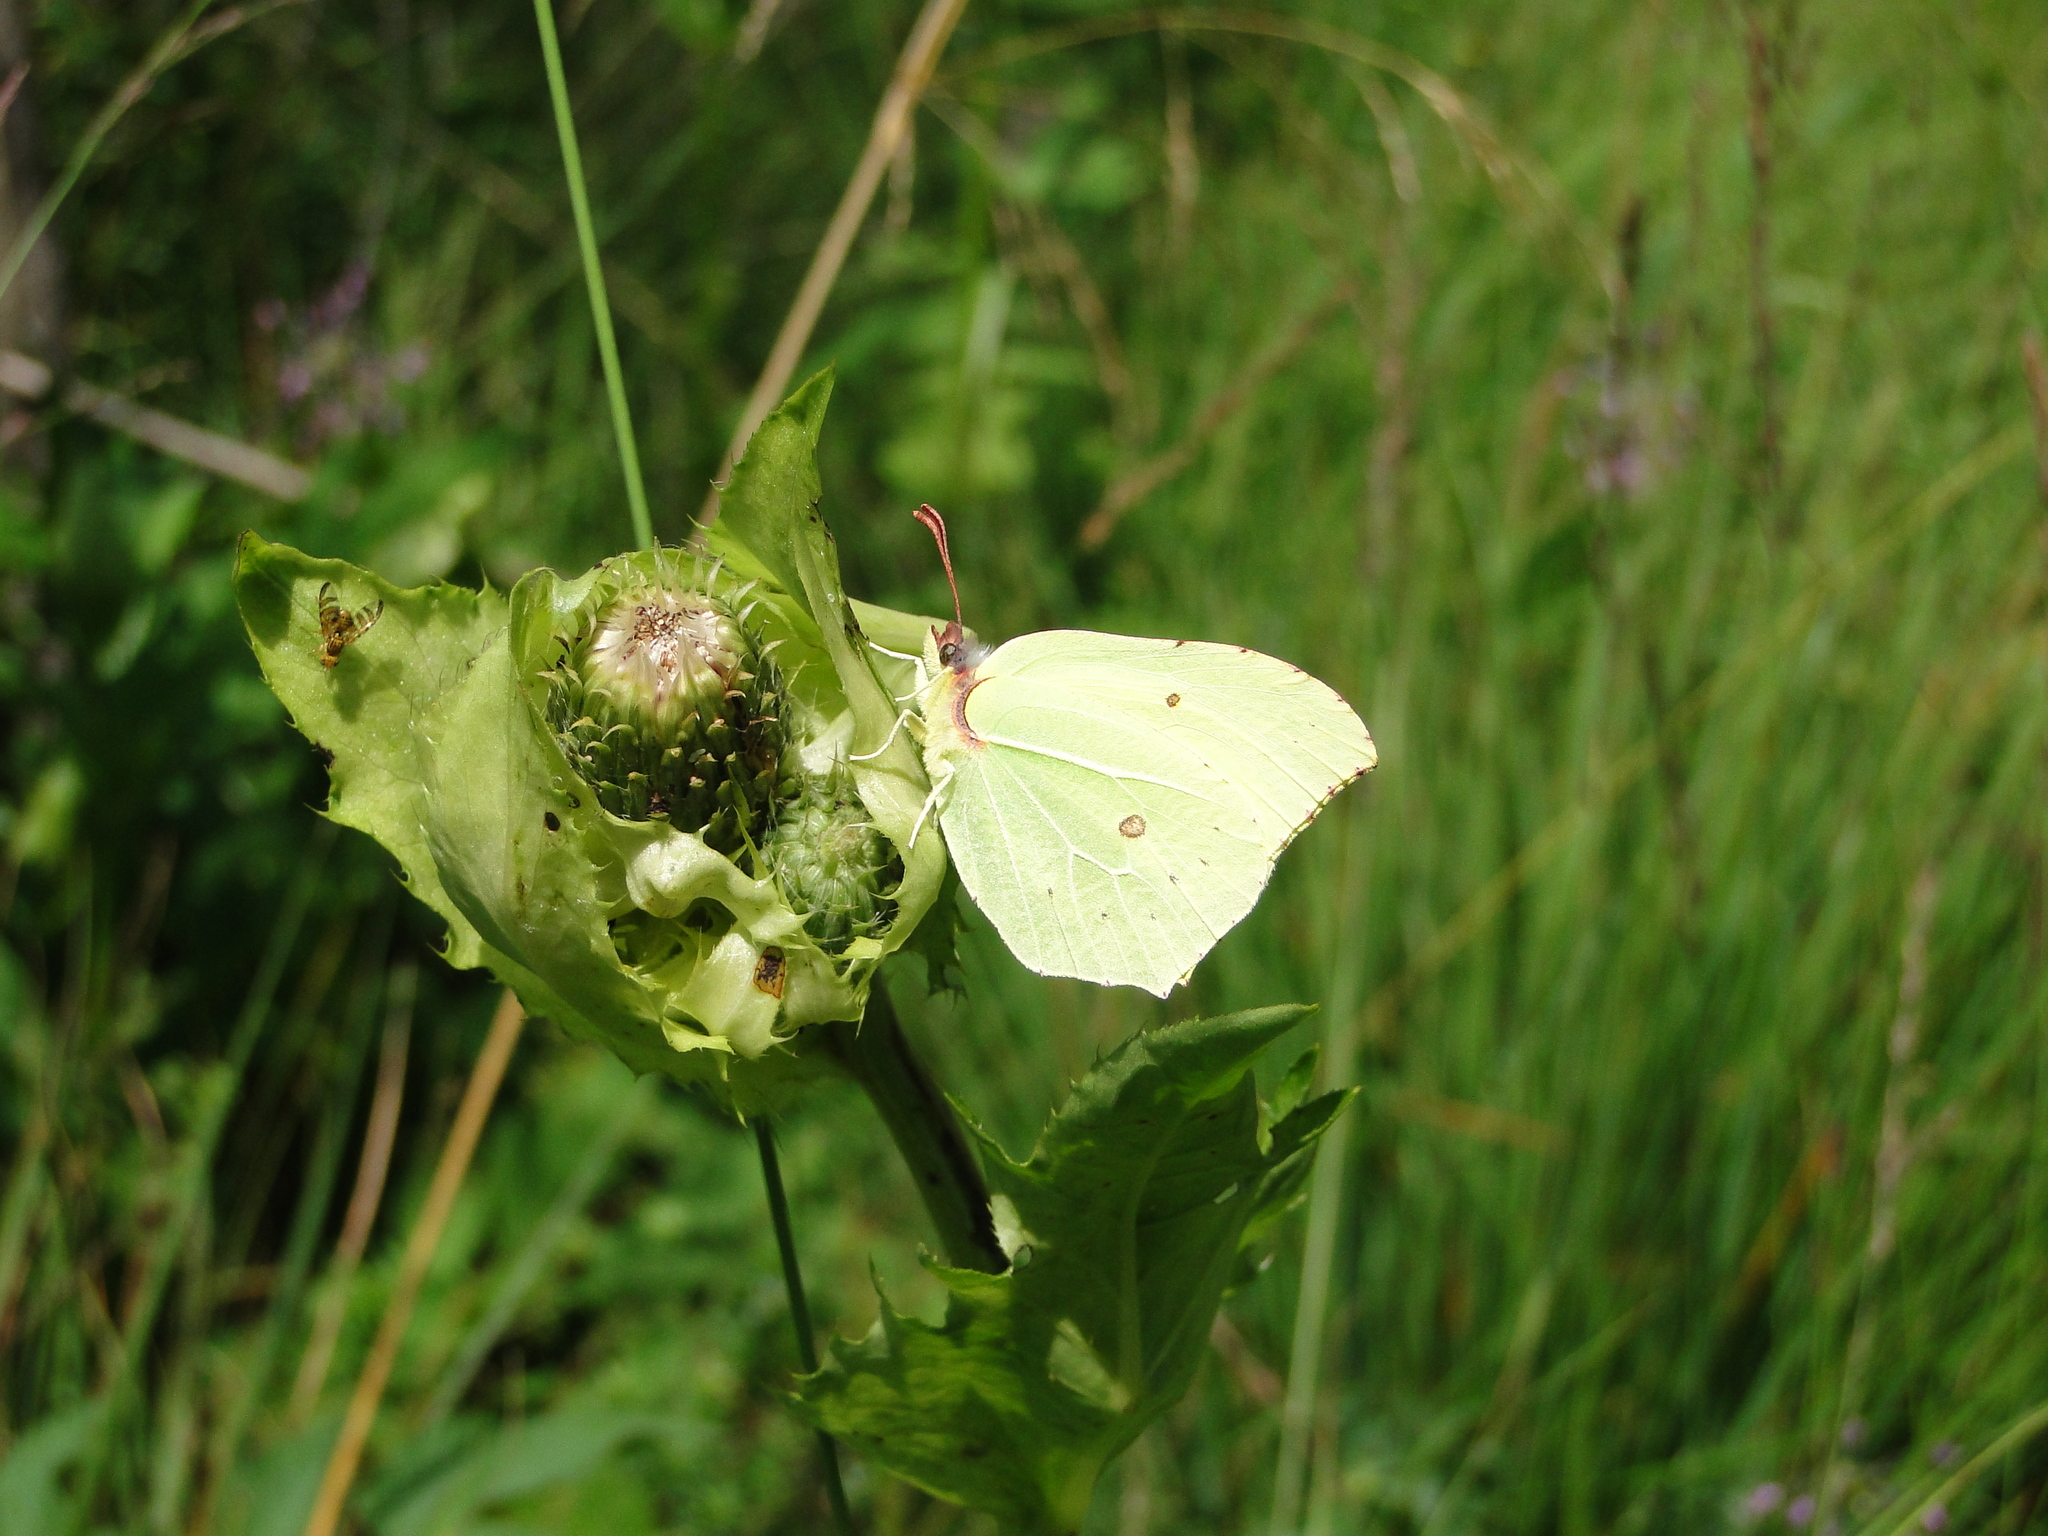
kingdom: Animalia
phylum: Arthropoda
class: Insecta
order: Lepidoptera
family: Pieridae
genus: Gonepteryx
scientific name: Gonepteryx rhamni
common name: Brimstone
